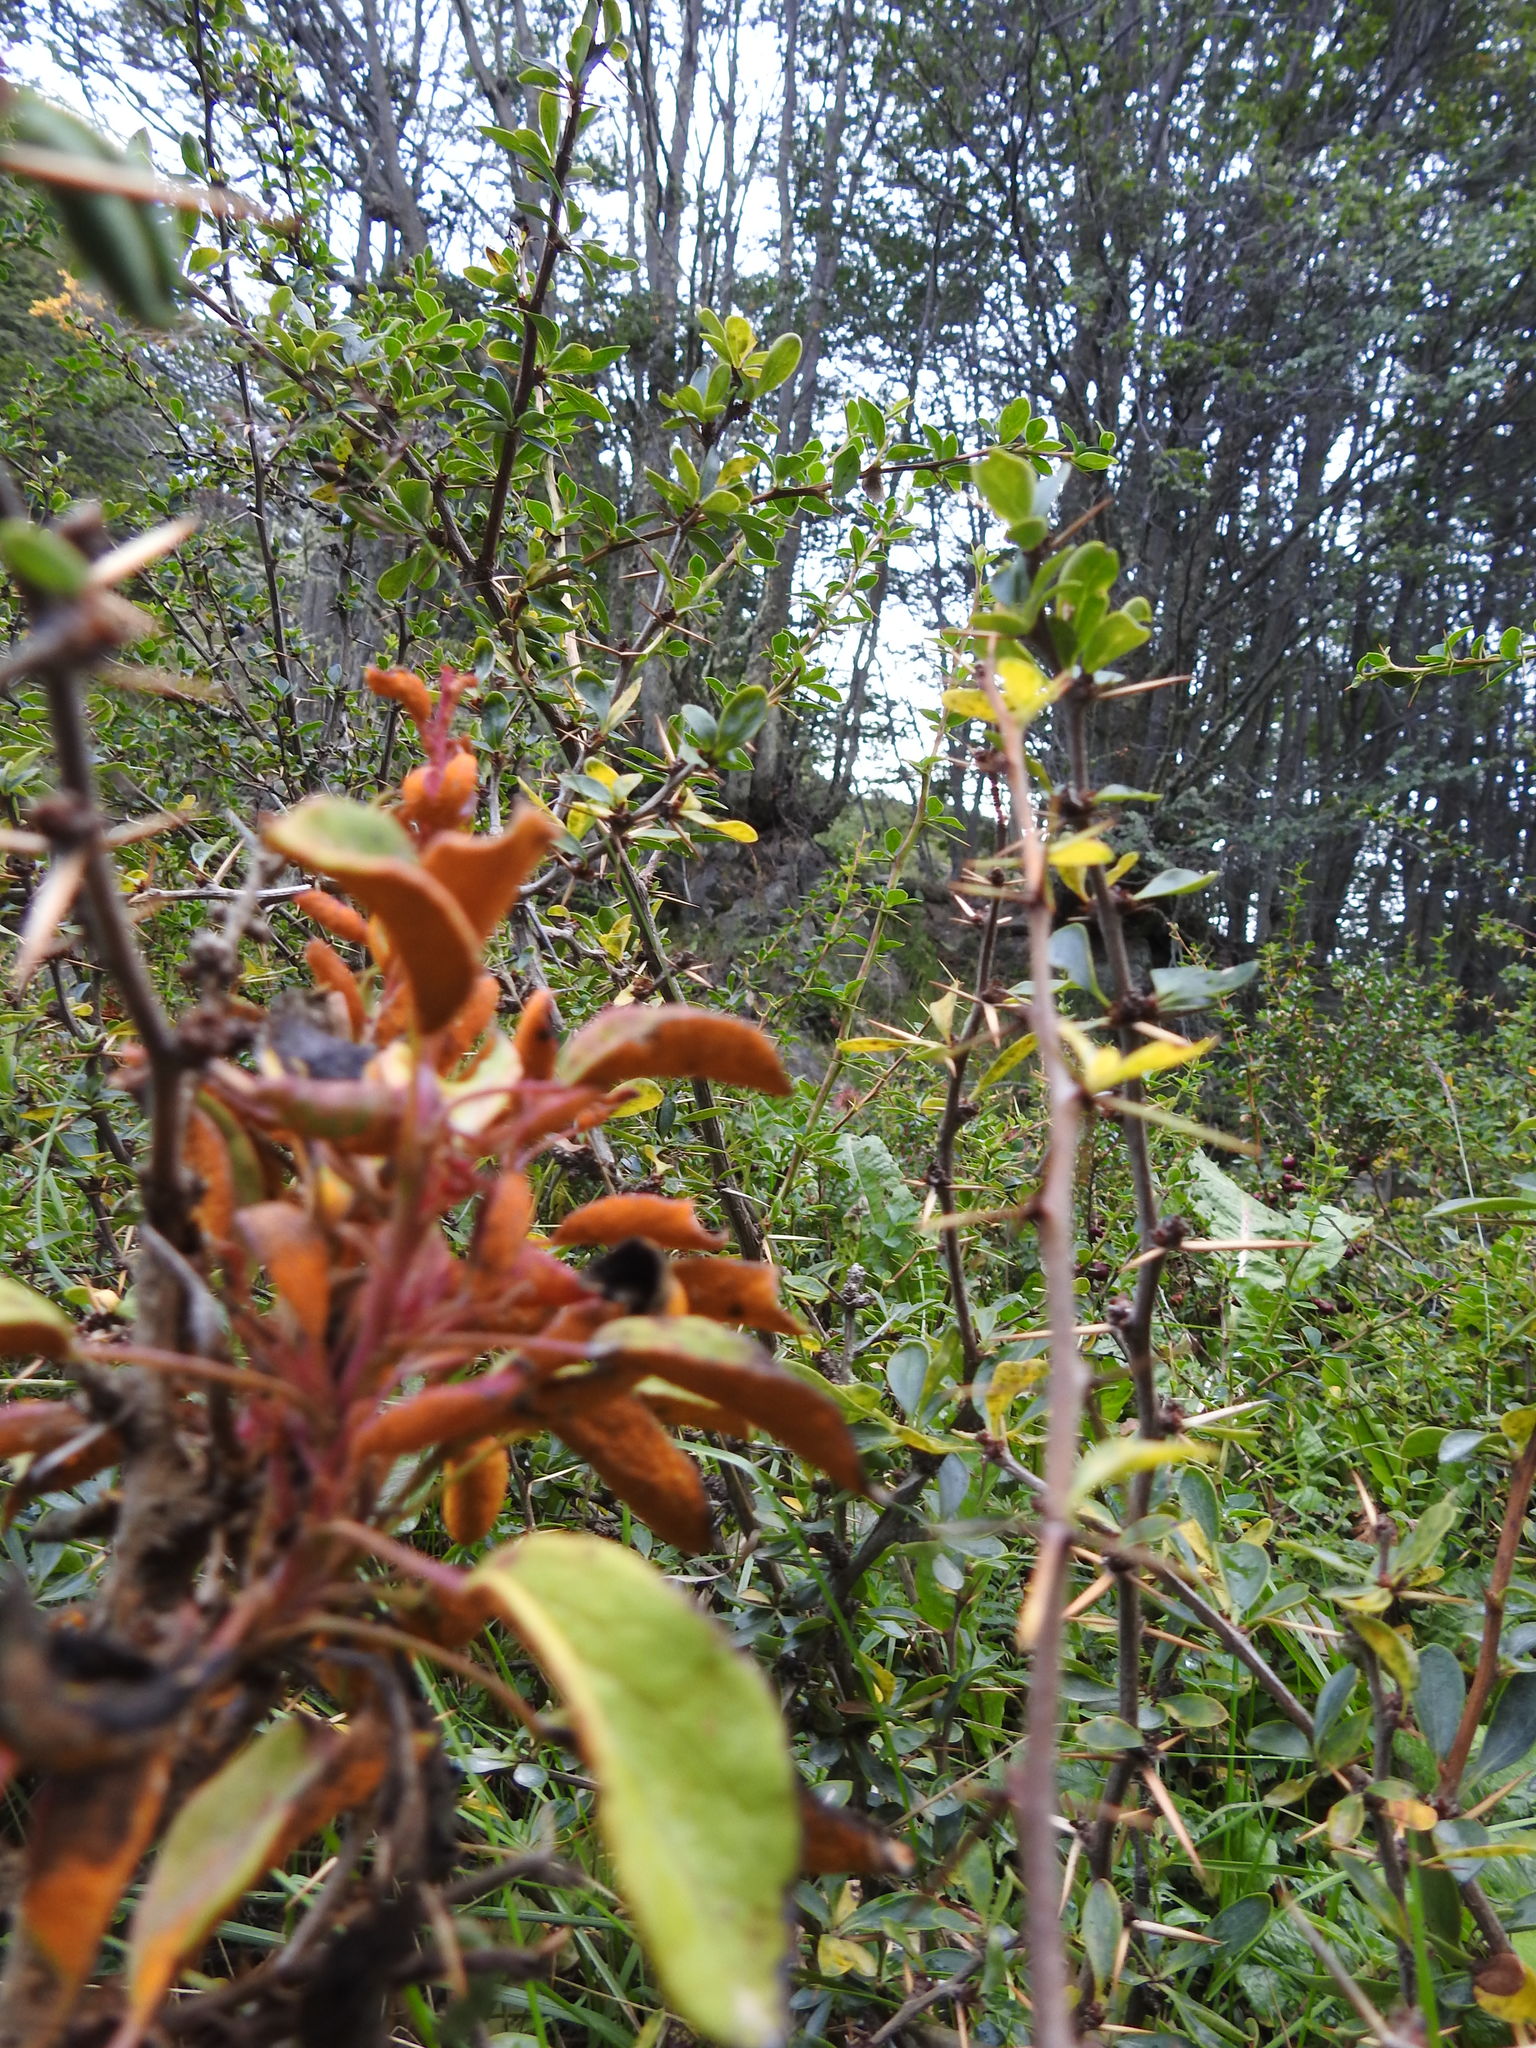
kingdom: Fungi
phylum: Basidiomycota
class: Pucciniomycetes
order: Pucciniales
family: Pucciniaceae
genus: Puccinia
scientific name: Puccinia magellanica
